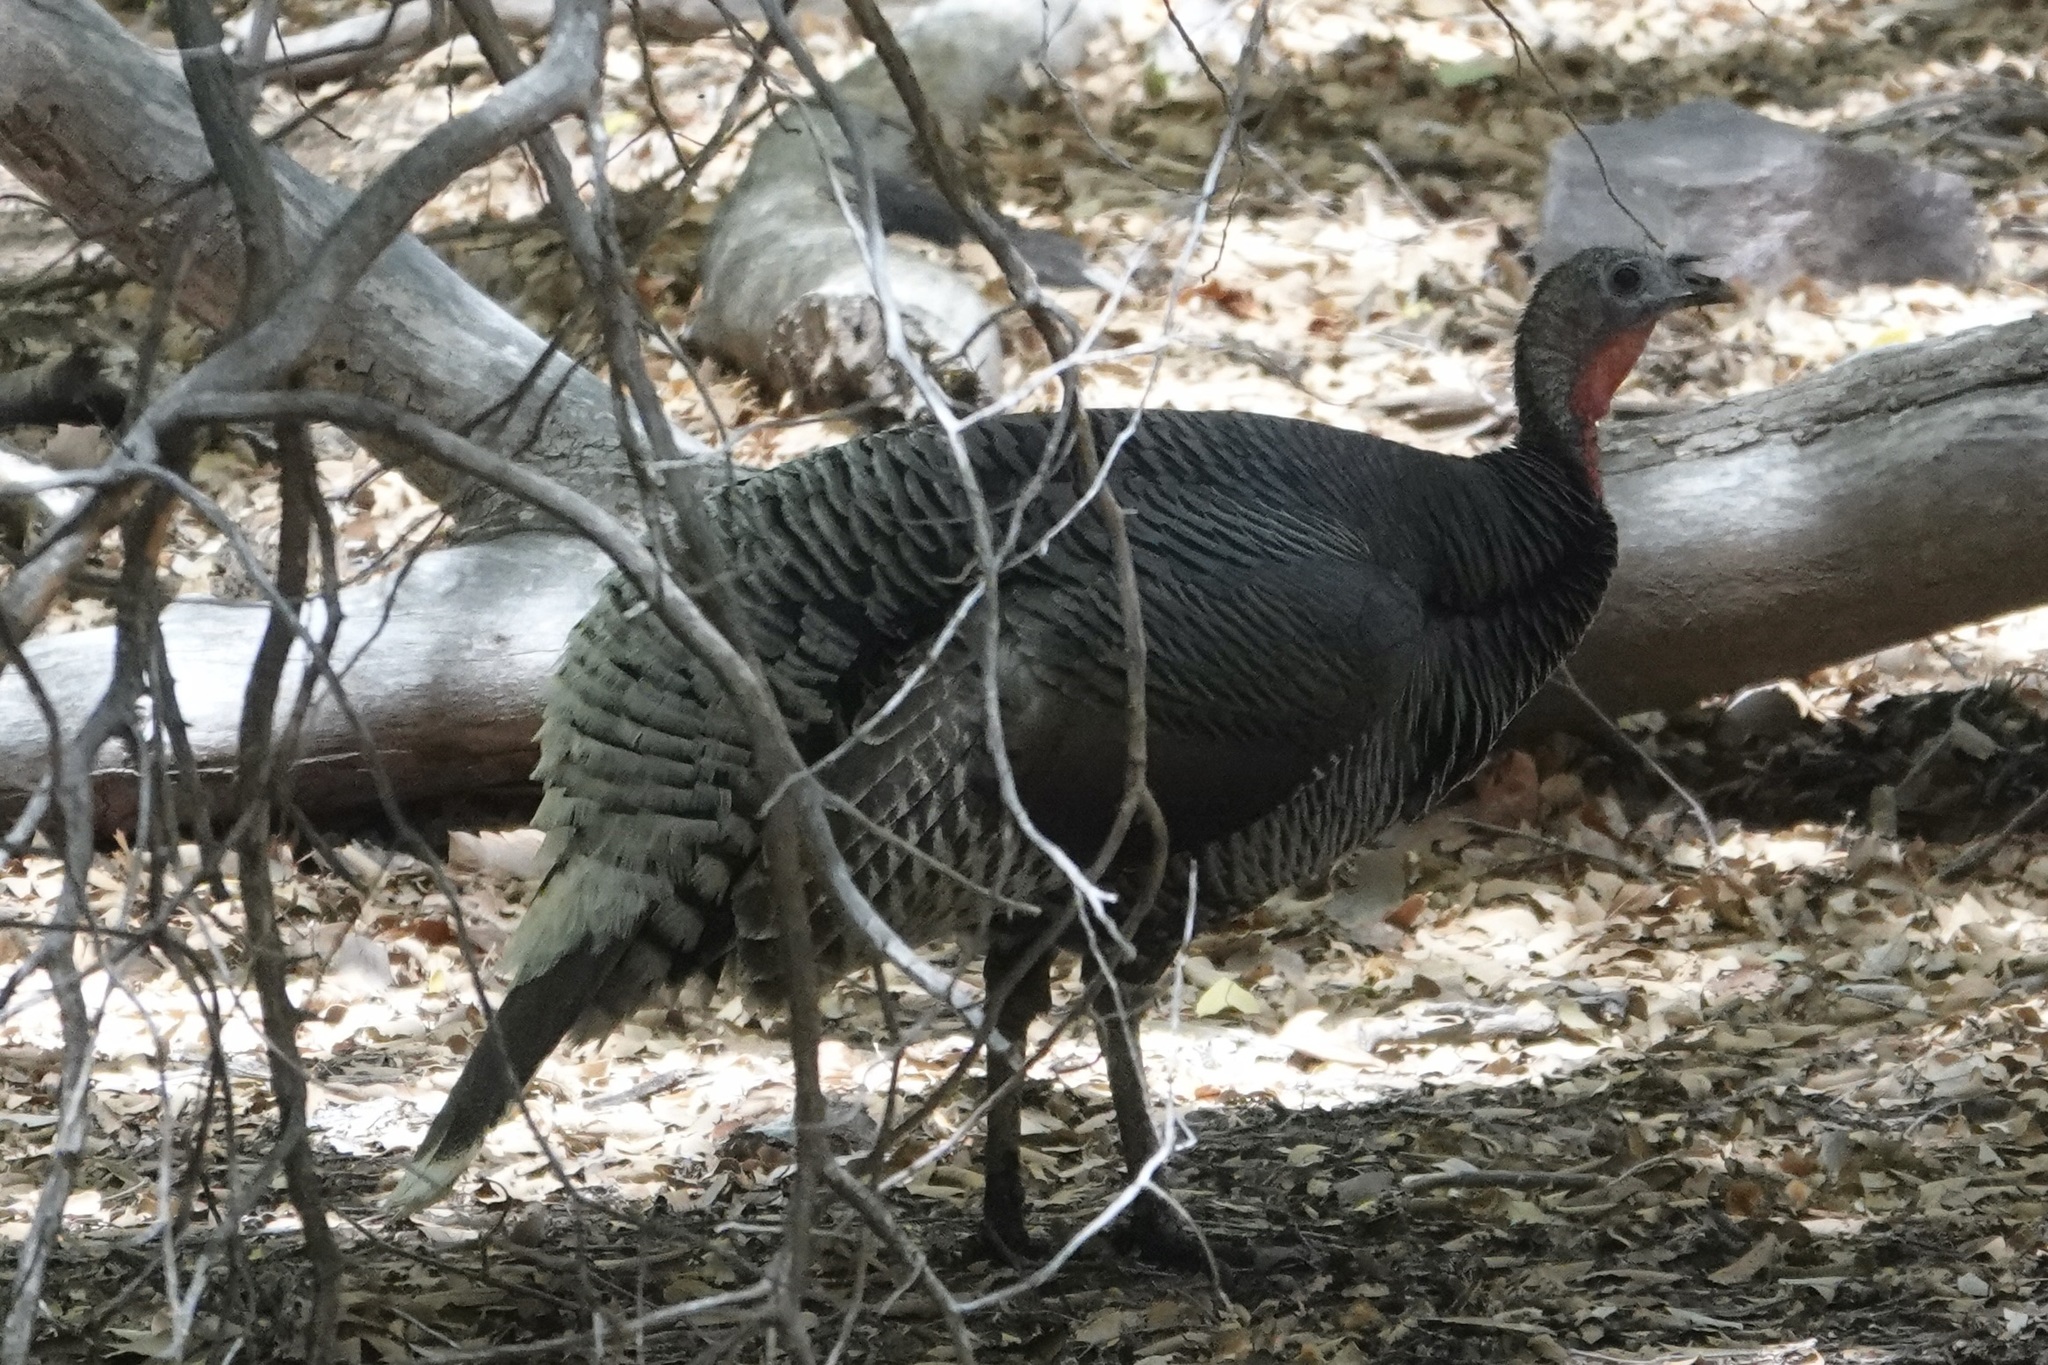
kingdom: Animalia
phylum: Chordata
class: Aves
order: Galliformes
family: Phasianidae
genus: Meleagris
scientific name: Meleagris gallopavo
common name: Wild turkey
